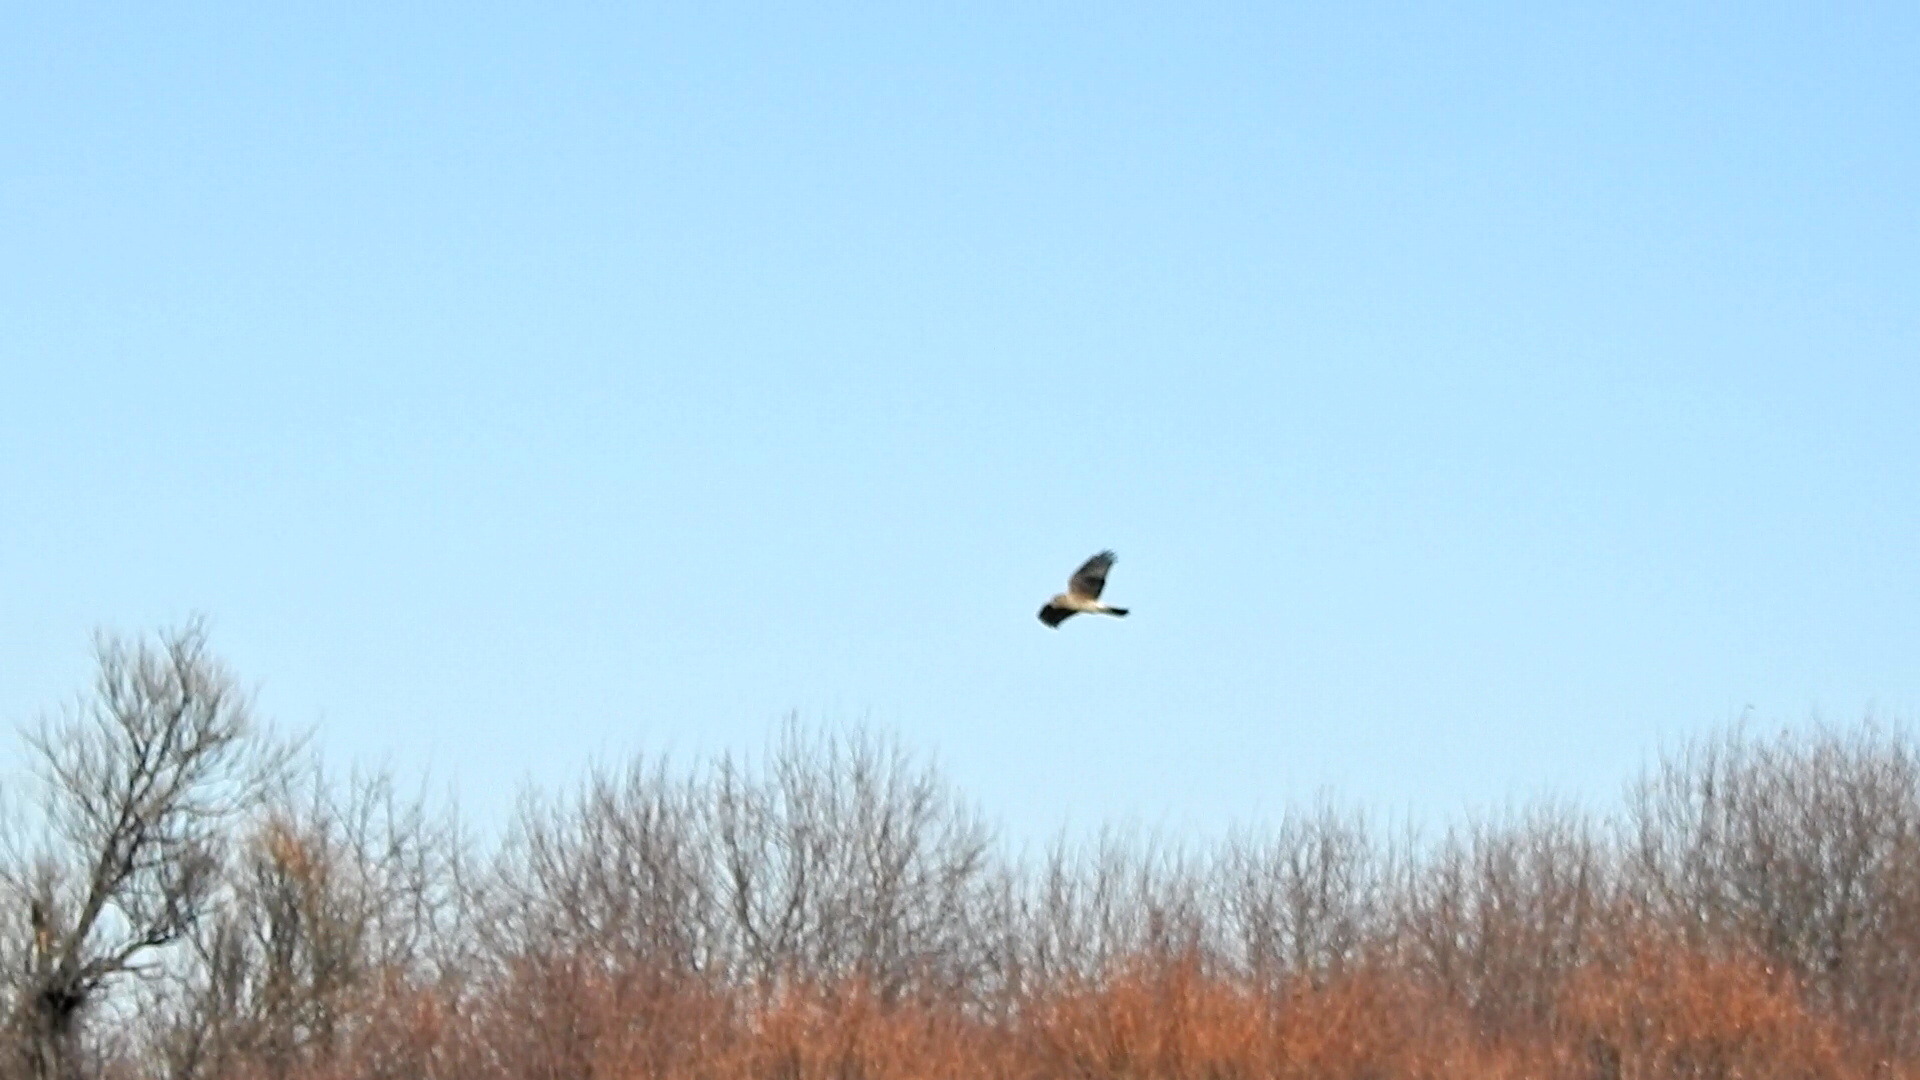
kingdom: Animalia
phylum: Chordata
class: Aves
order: Accipitriformes
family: Accipitridae
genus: Circus
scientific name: Circus cyaneus
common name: Hen harrier
